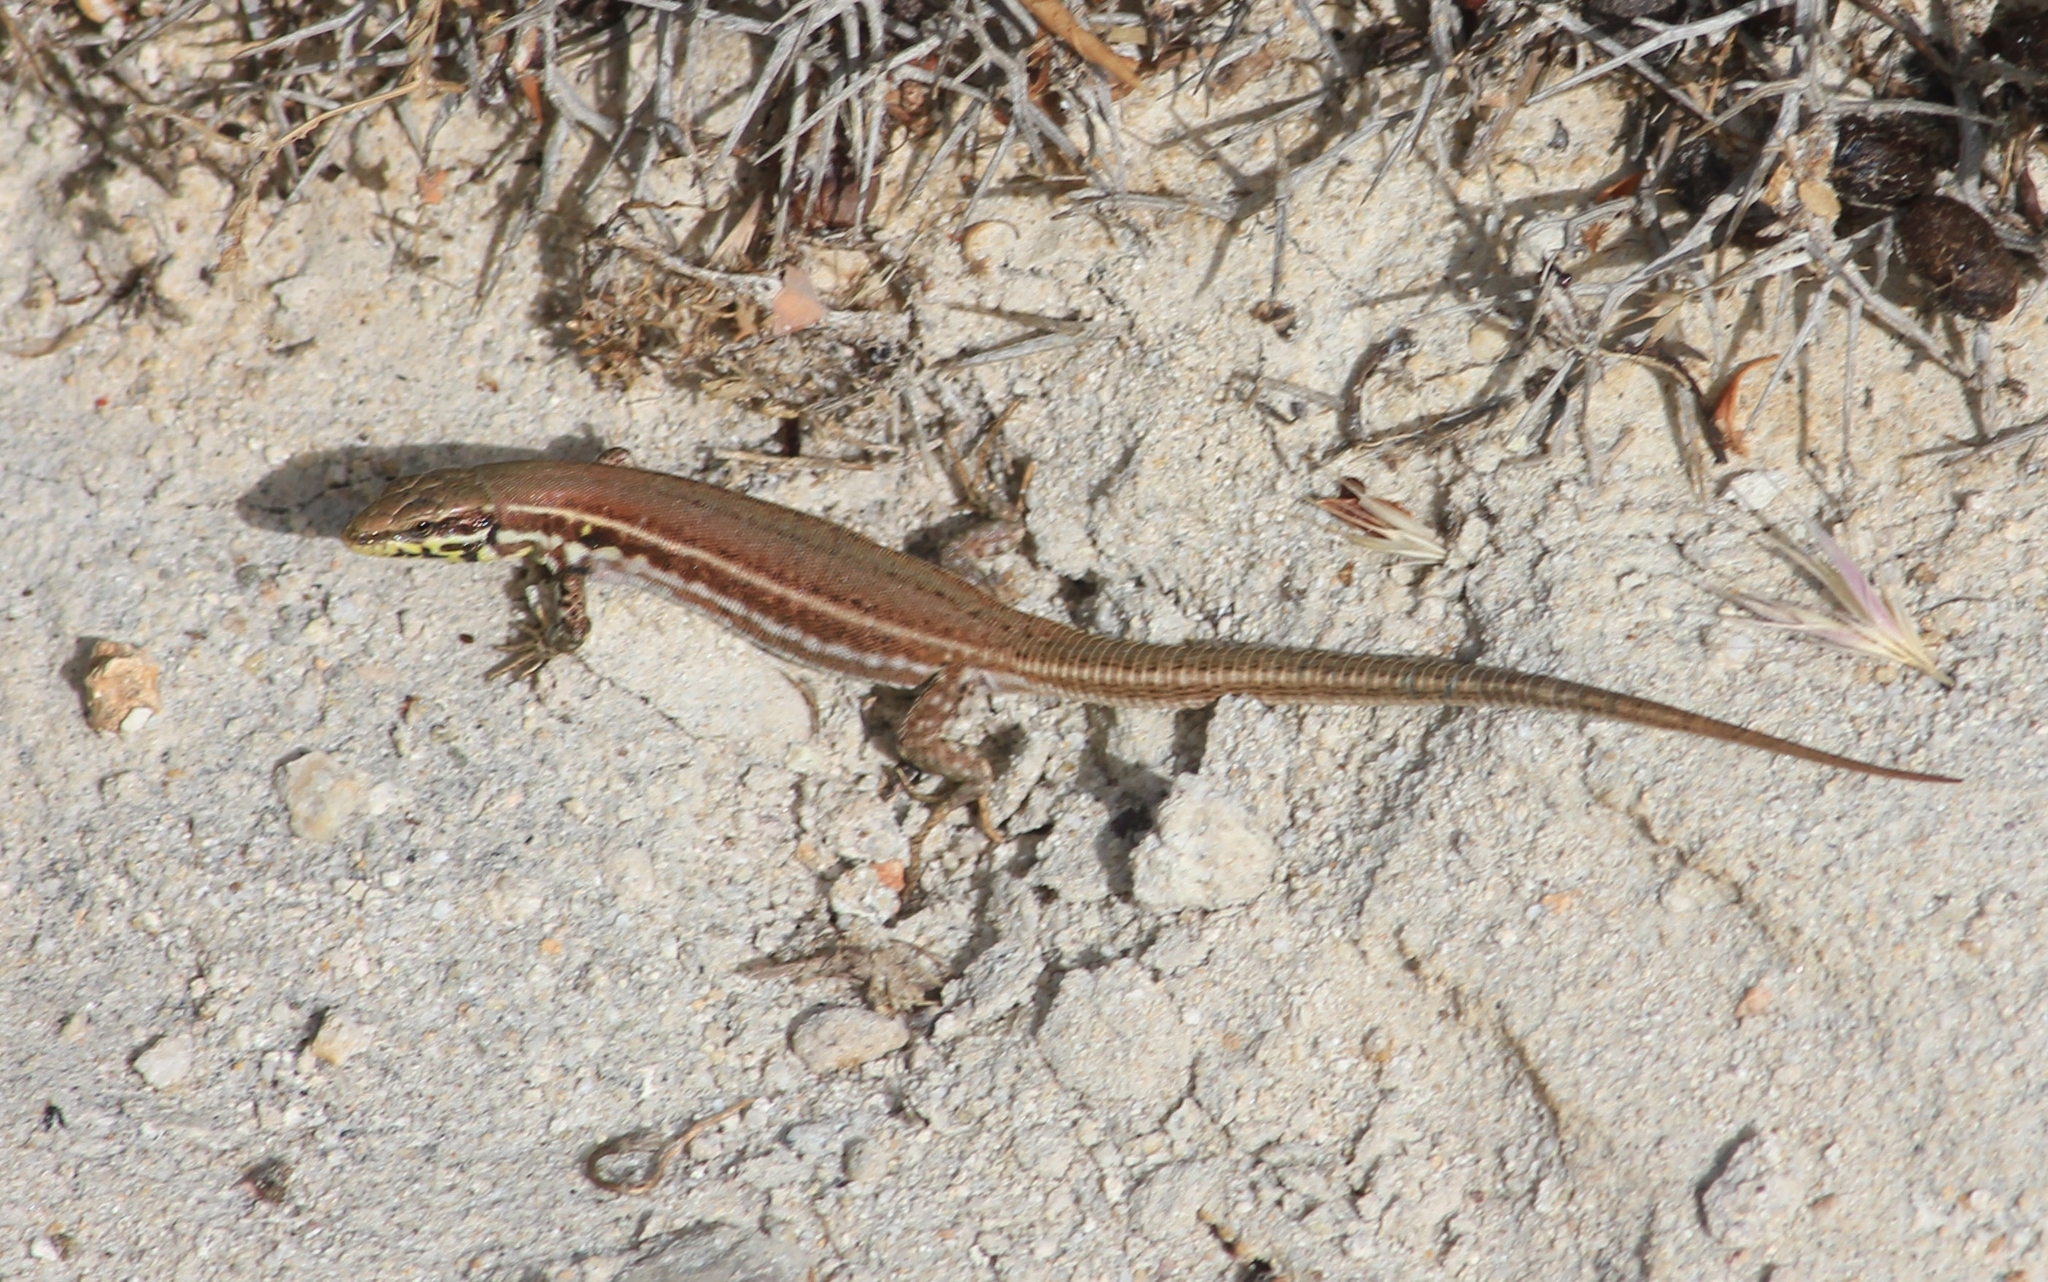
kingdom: Animalia
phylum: Chordata
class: Squamata
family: Lacertidae
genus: Podarcis
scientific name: Podarcis milensis
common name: Milos wall lizard
